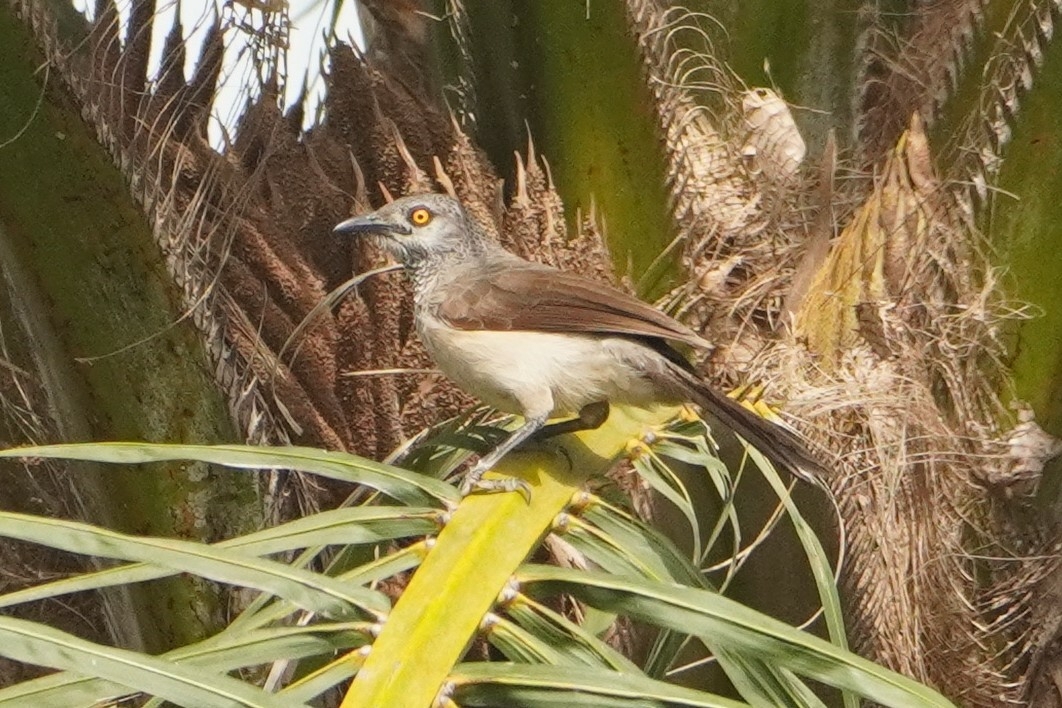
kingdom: Animalia
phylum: Chordata
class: Aves
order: Passeriformes
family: Leiothrichidae
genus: Turdoides
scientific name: Turdoides plebejus
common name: Brown babbler
